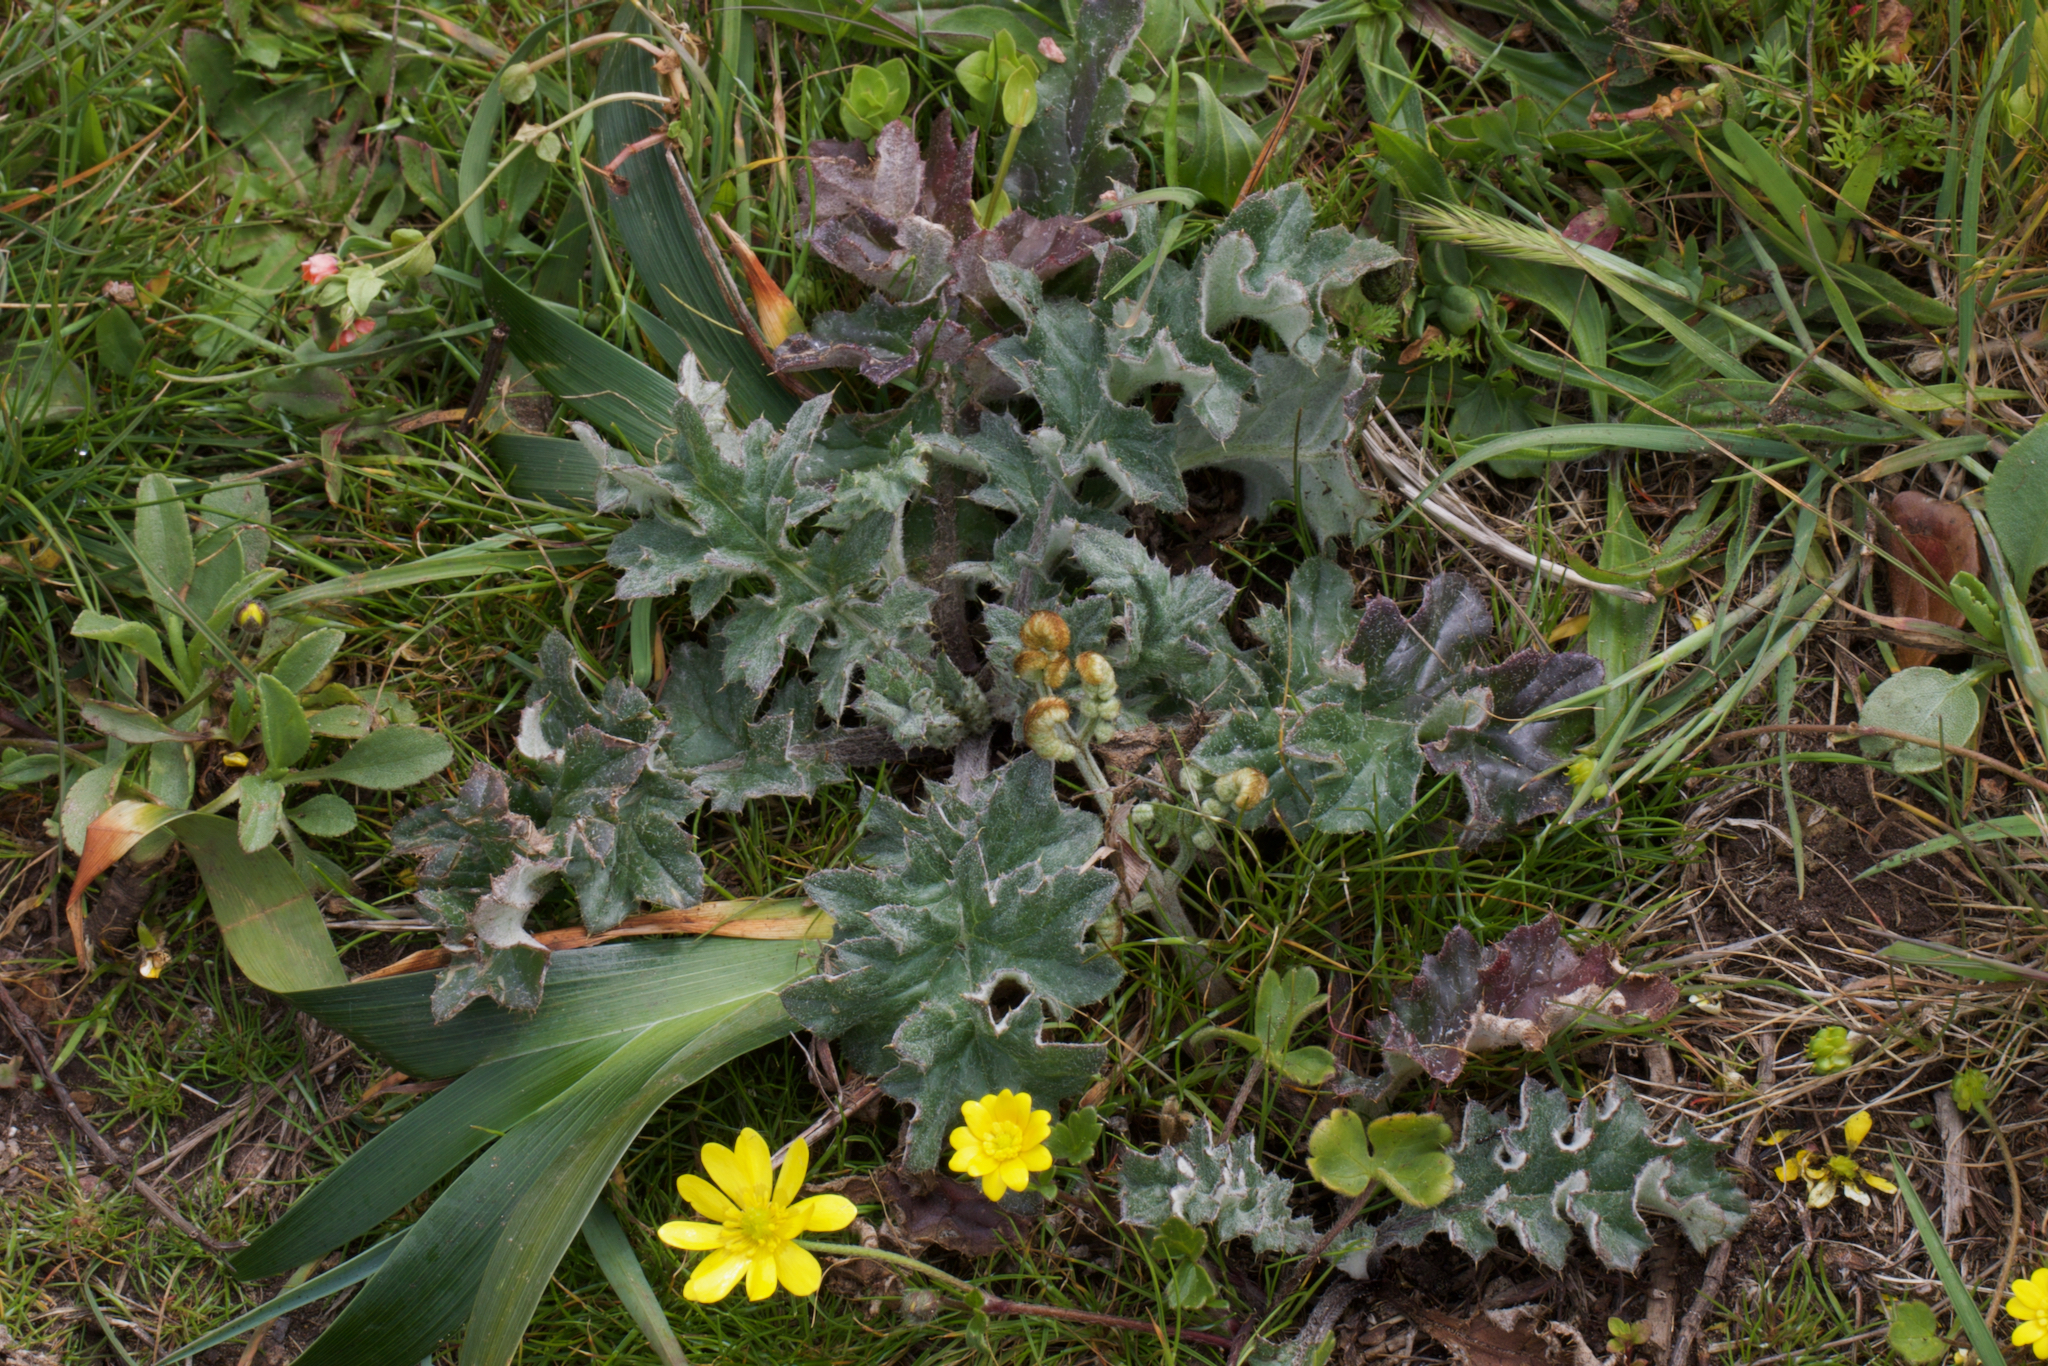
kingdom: Plantae
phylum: Tracheophyta
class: Magnoliopsida
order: Asterales
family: Asteraceae
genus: Cirsium
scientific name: Cirsium andrewsii
